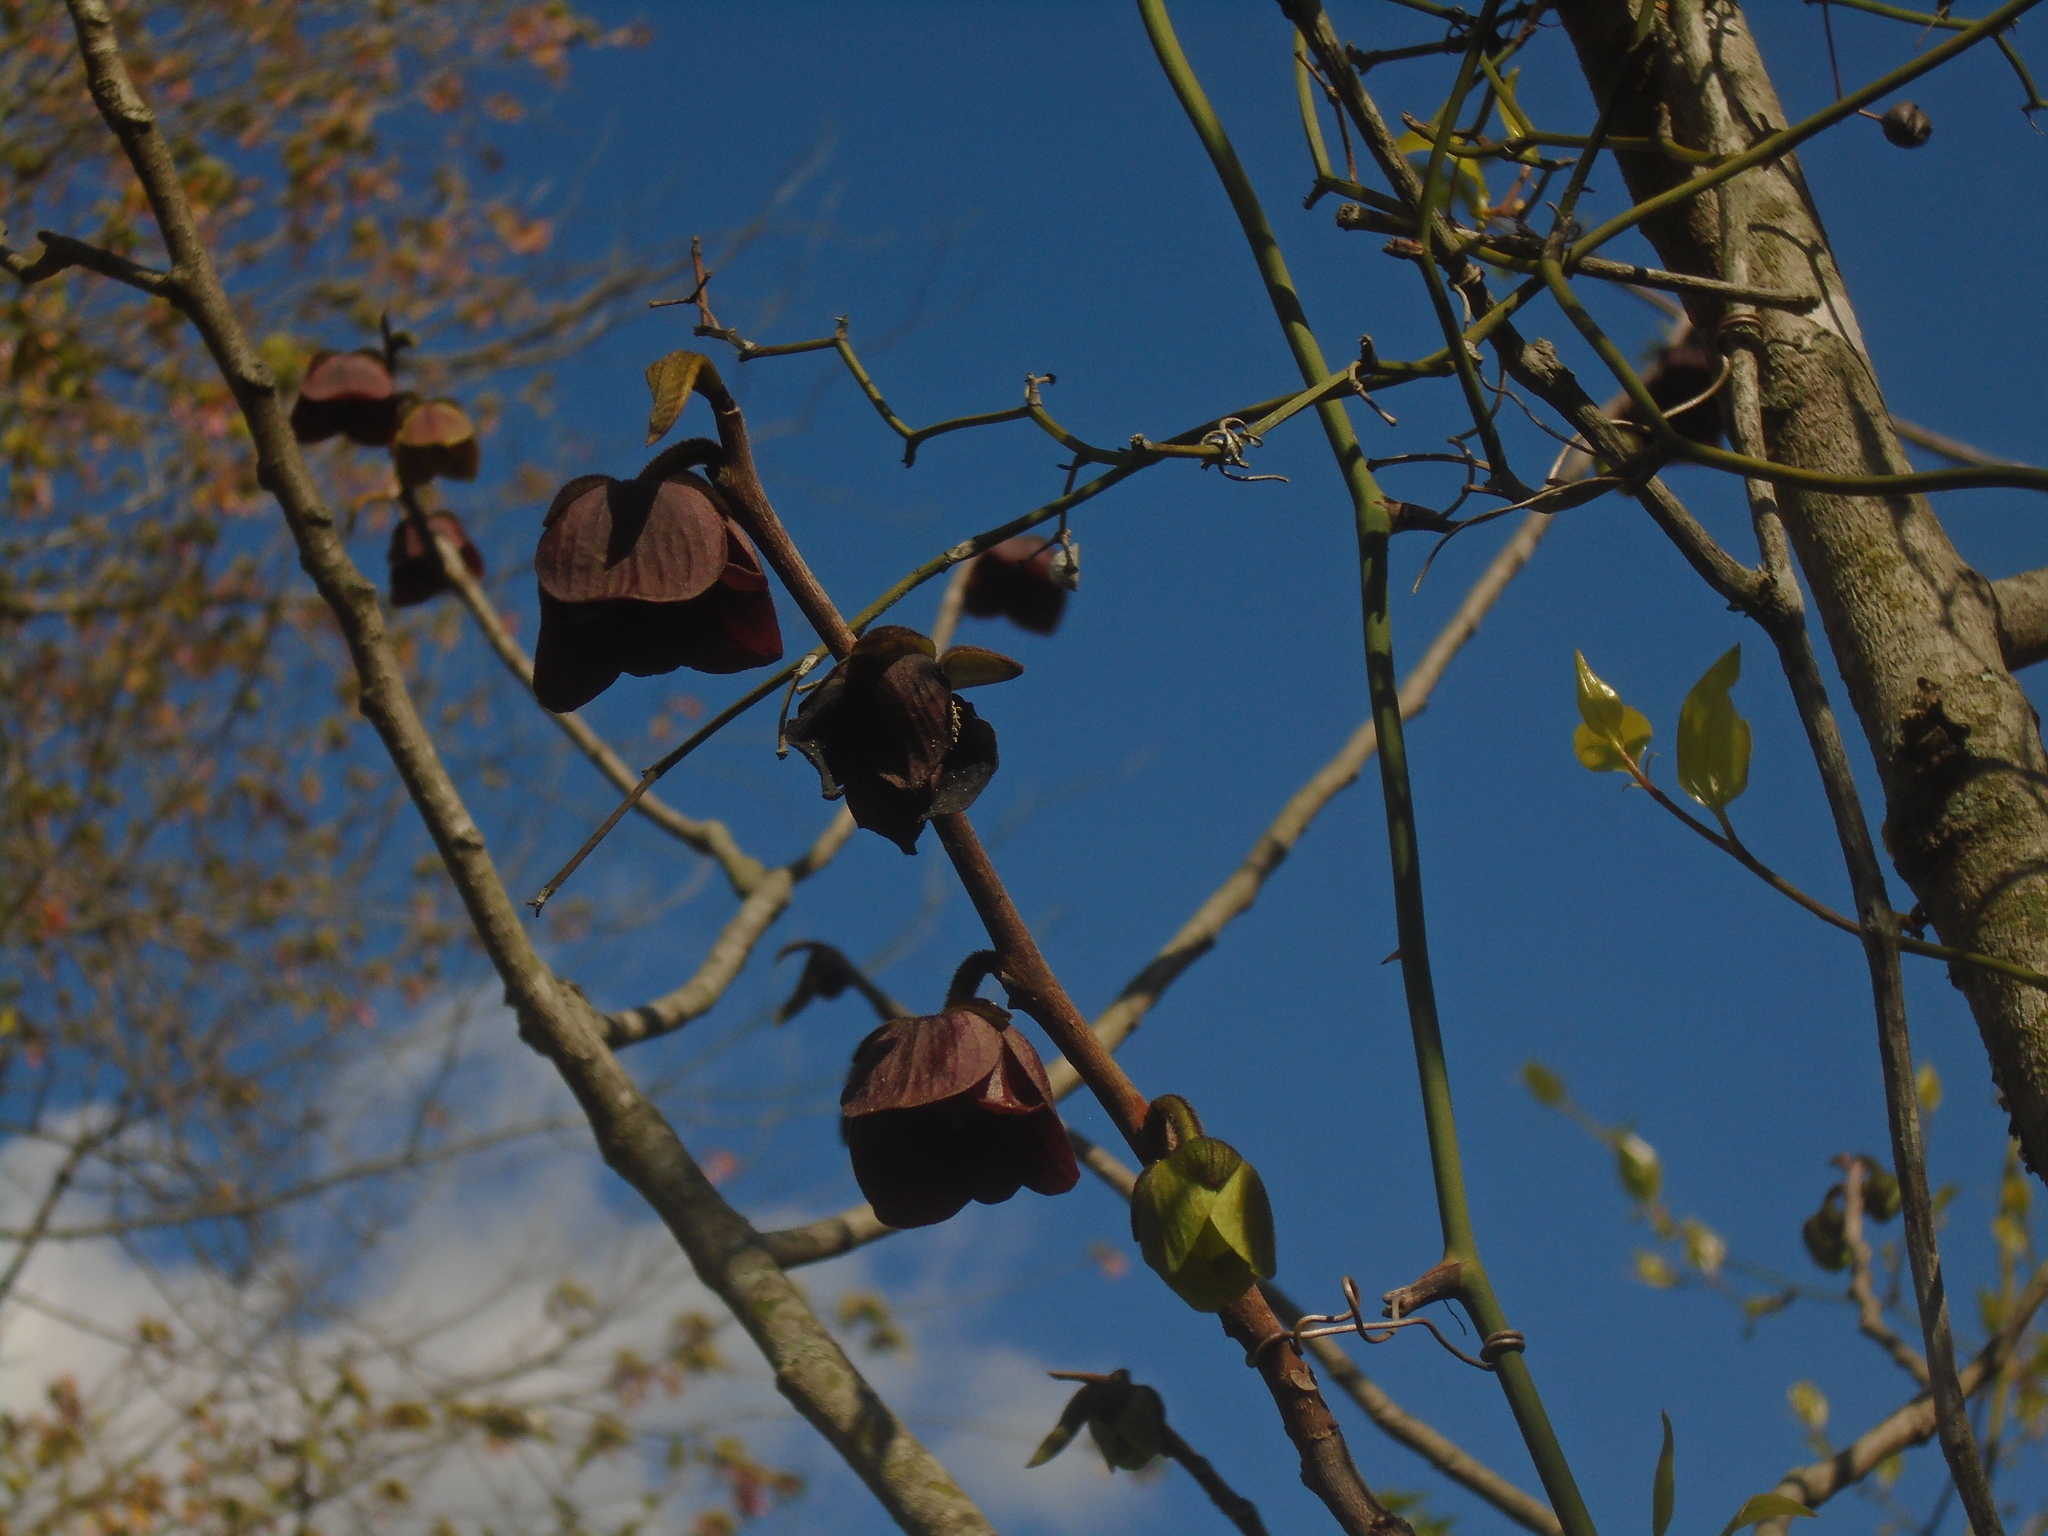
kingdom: Plantae
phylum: Tracheophyta
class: Magnoliopsida
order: Magnoliales
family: Annonaceae
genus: Asimina
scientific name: Asimina triloba
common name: Dog-banana
